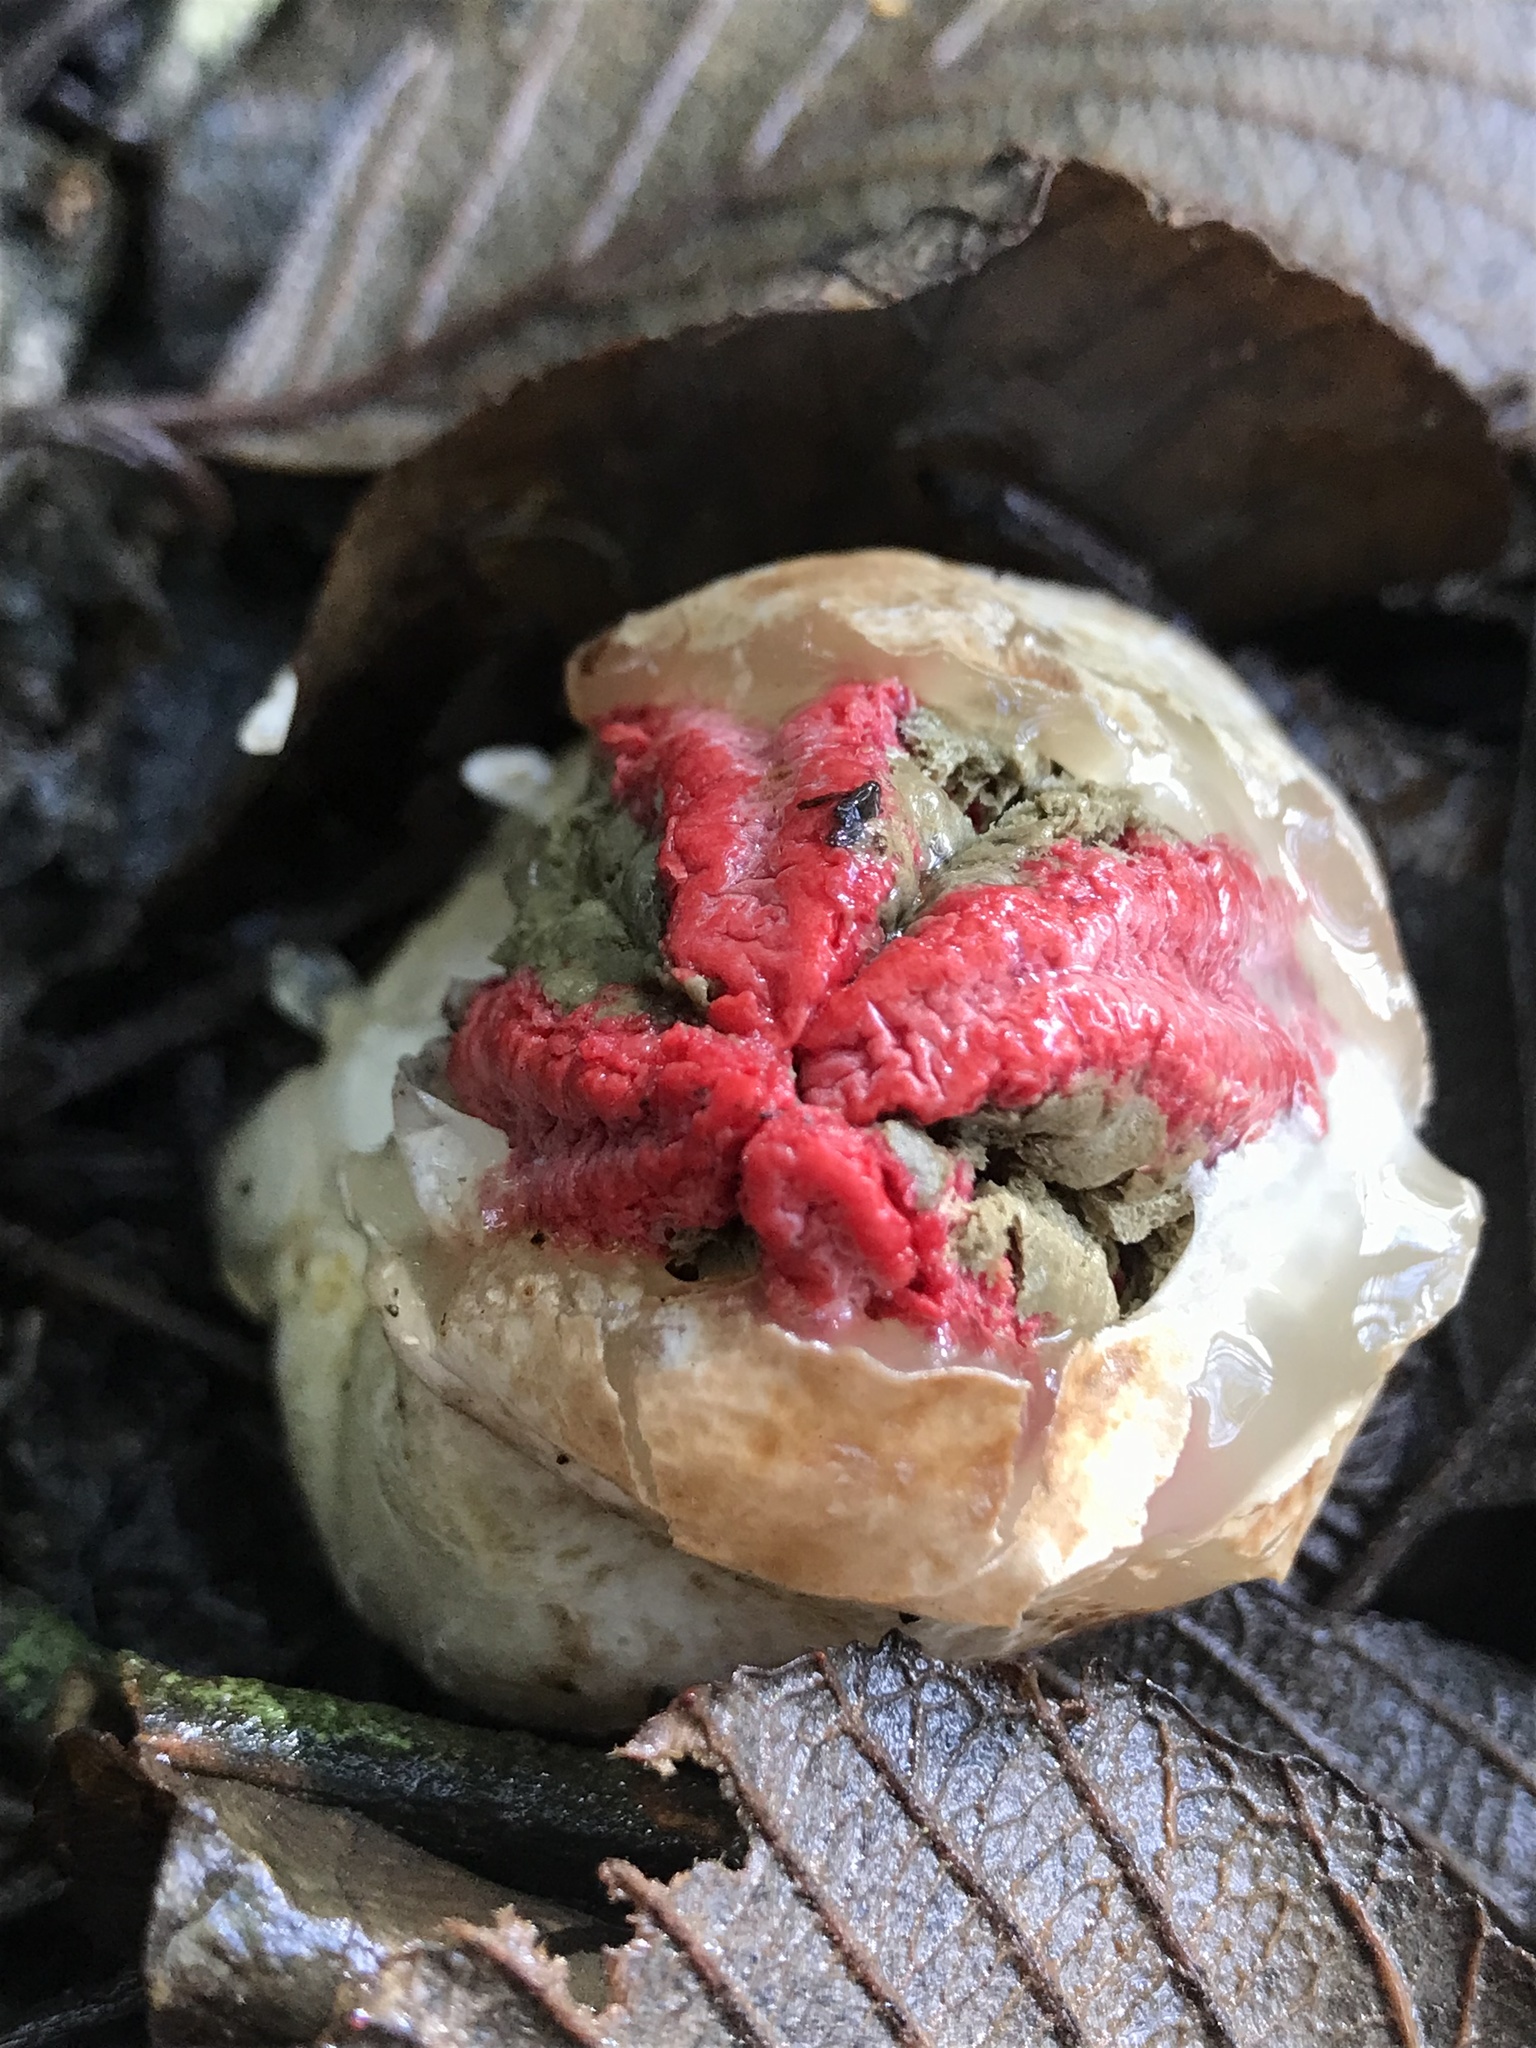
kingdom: Fungi
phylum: Basidiomycota
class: Agaricomycetes
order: Phallales
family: Phallaceae
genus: Clathrus
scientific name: Clathrus archeri
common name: Devil's fingers
